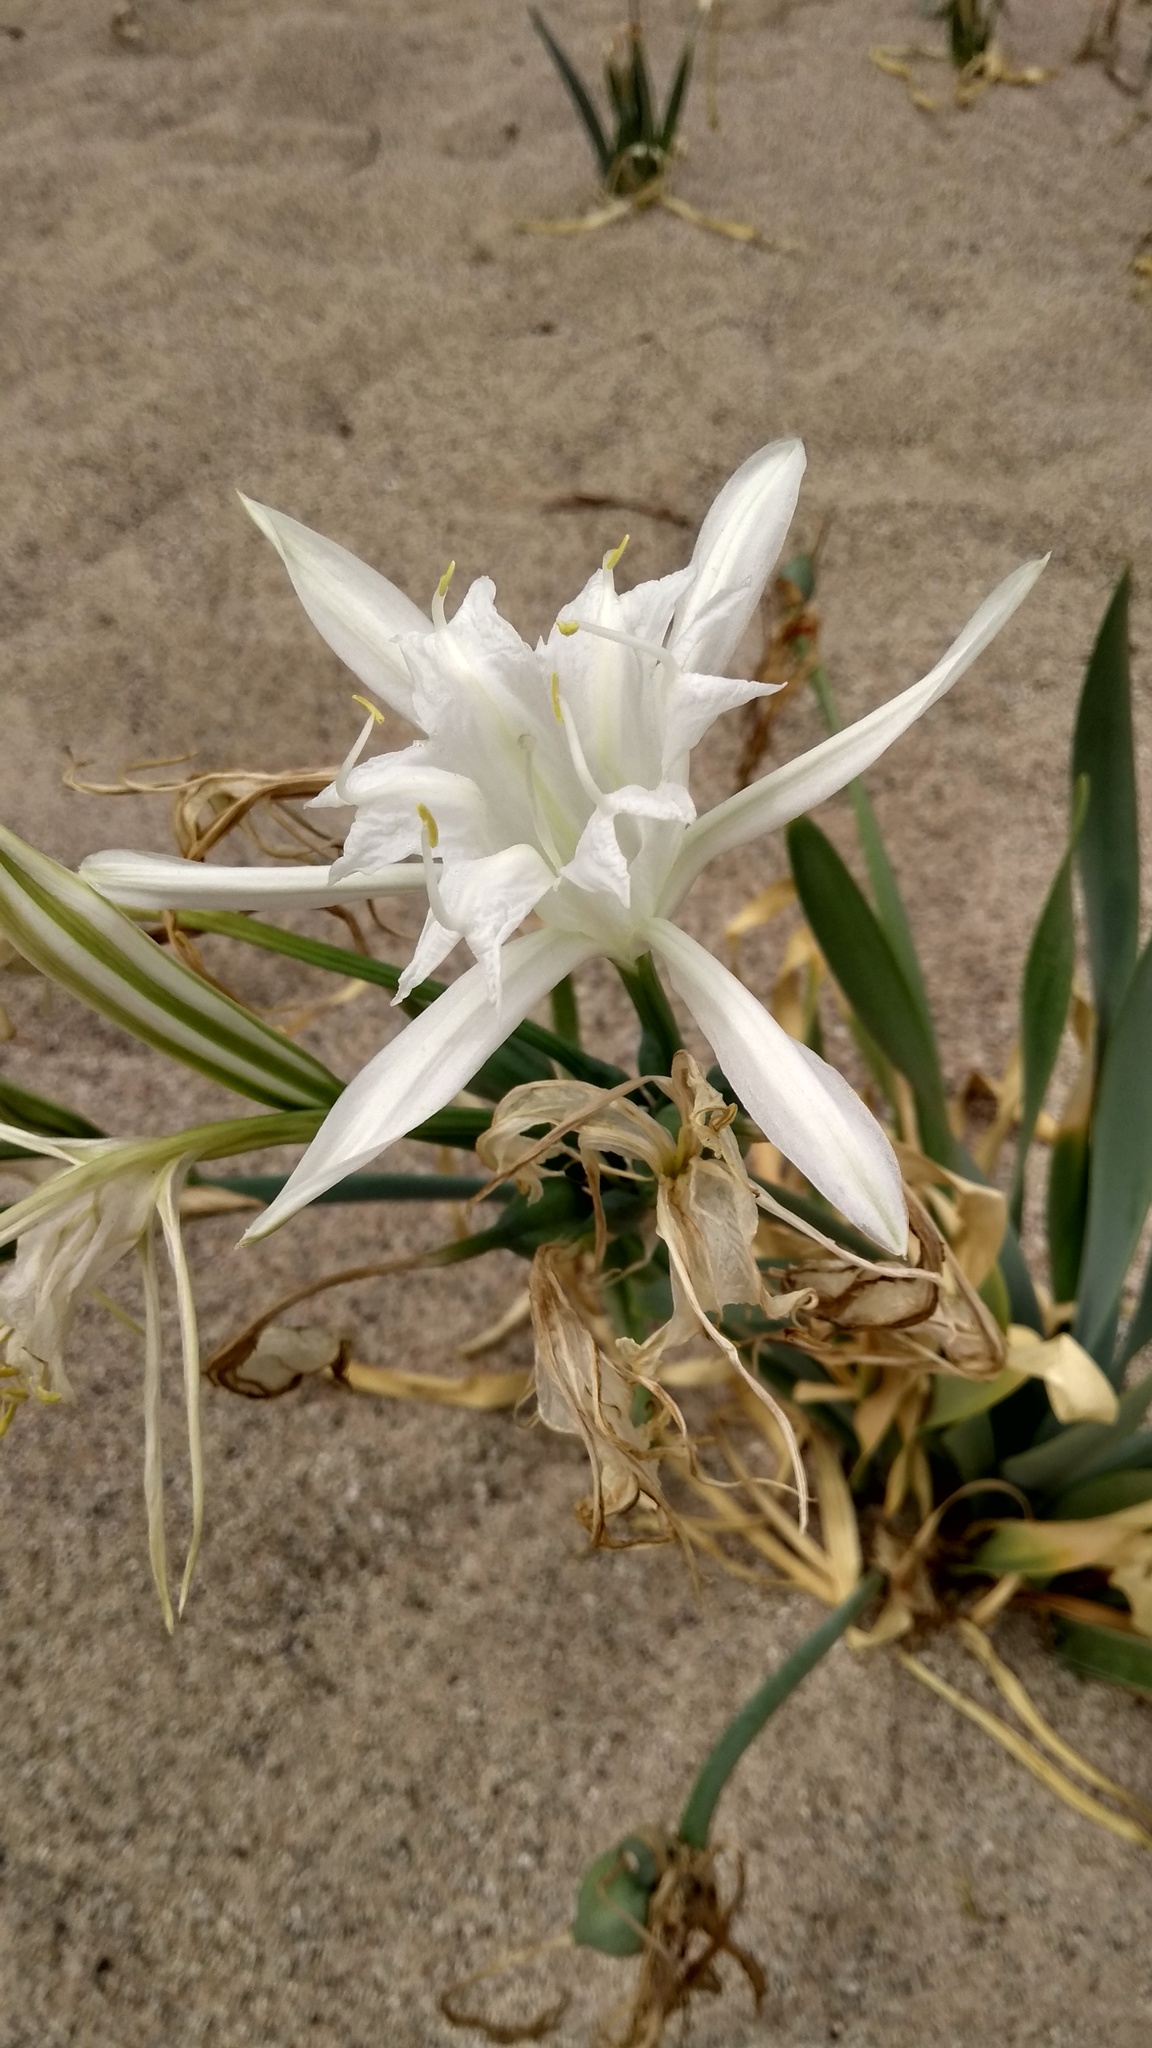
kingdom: Plantae
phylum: Tracheophyta
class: Liliopsida
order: Asparagales
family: Amaryllidaceae
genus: Pancratium
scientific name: Pancratium maritimum
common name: Sea-daffodil
